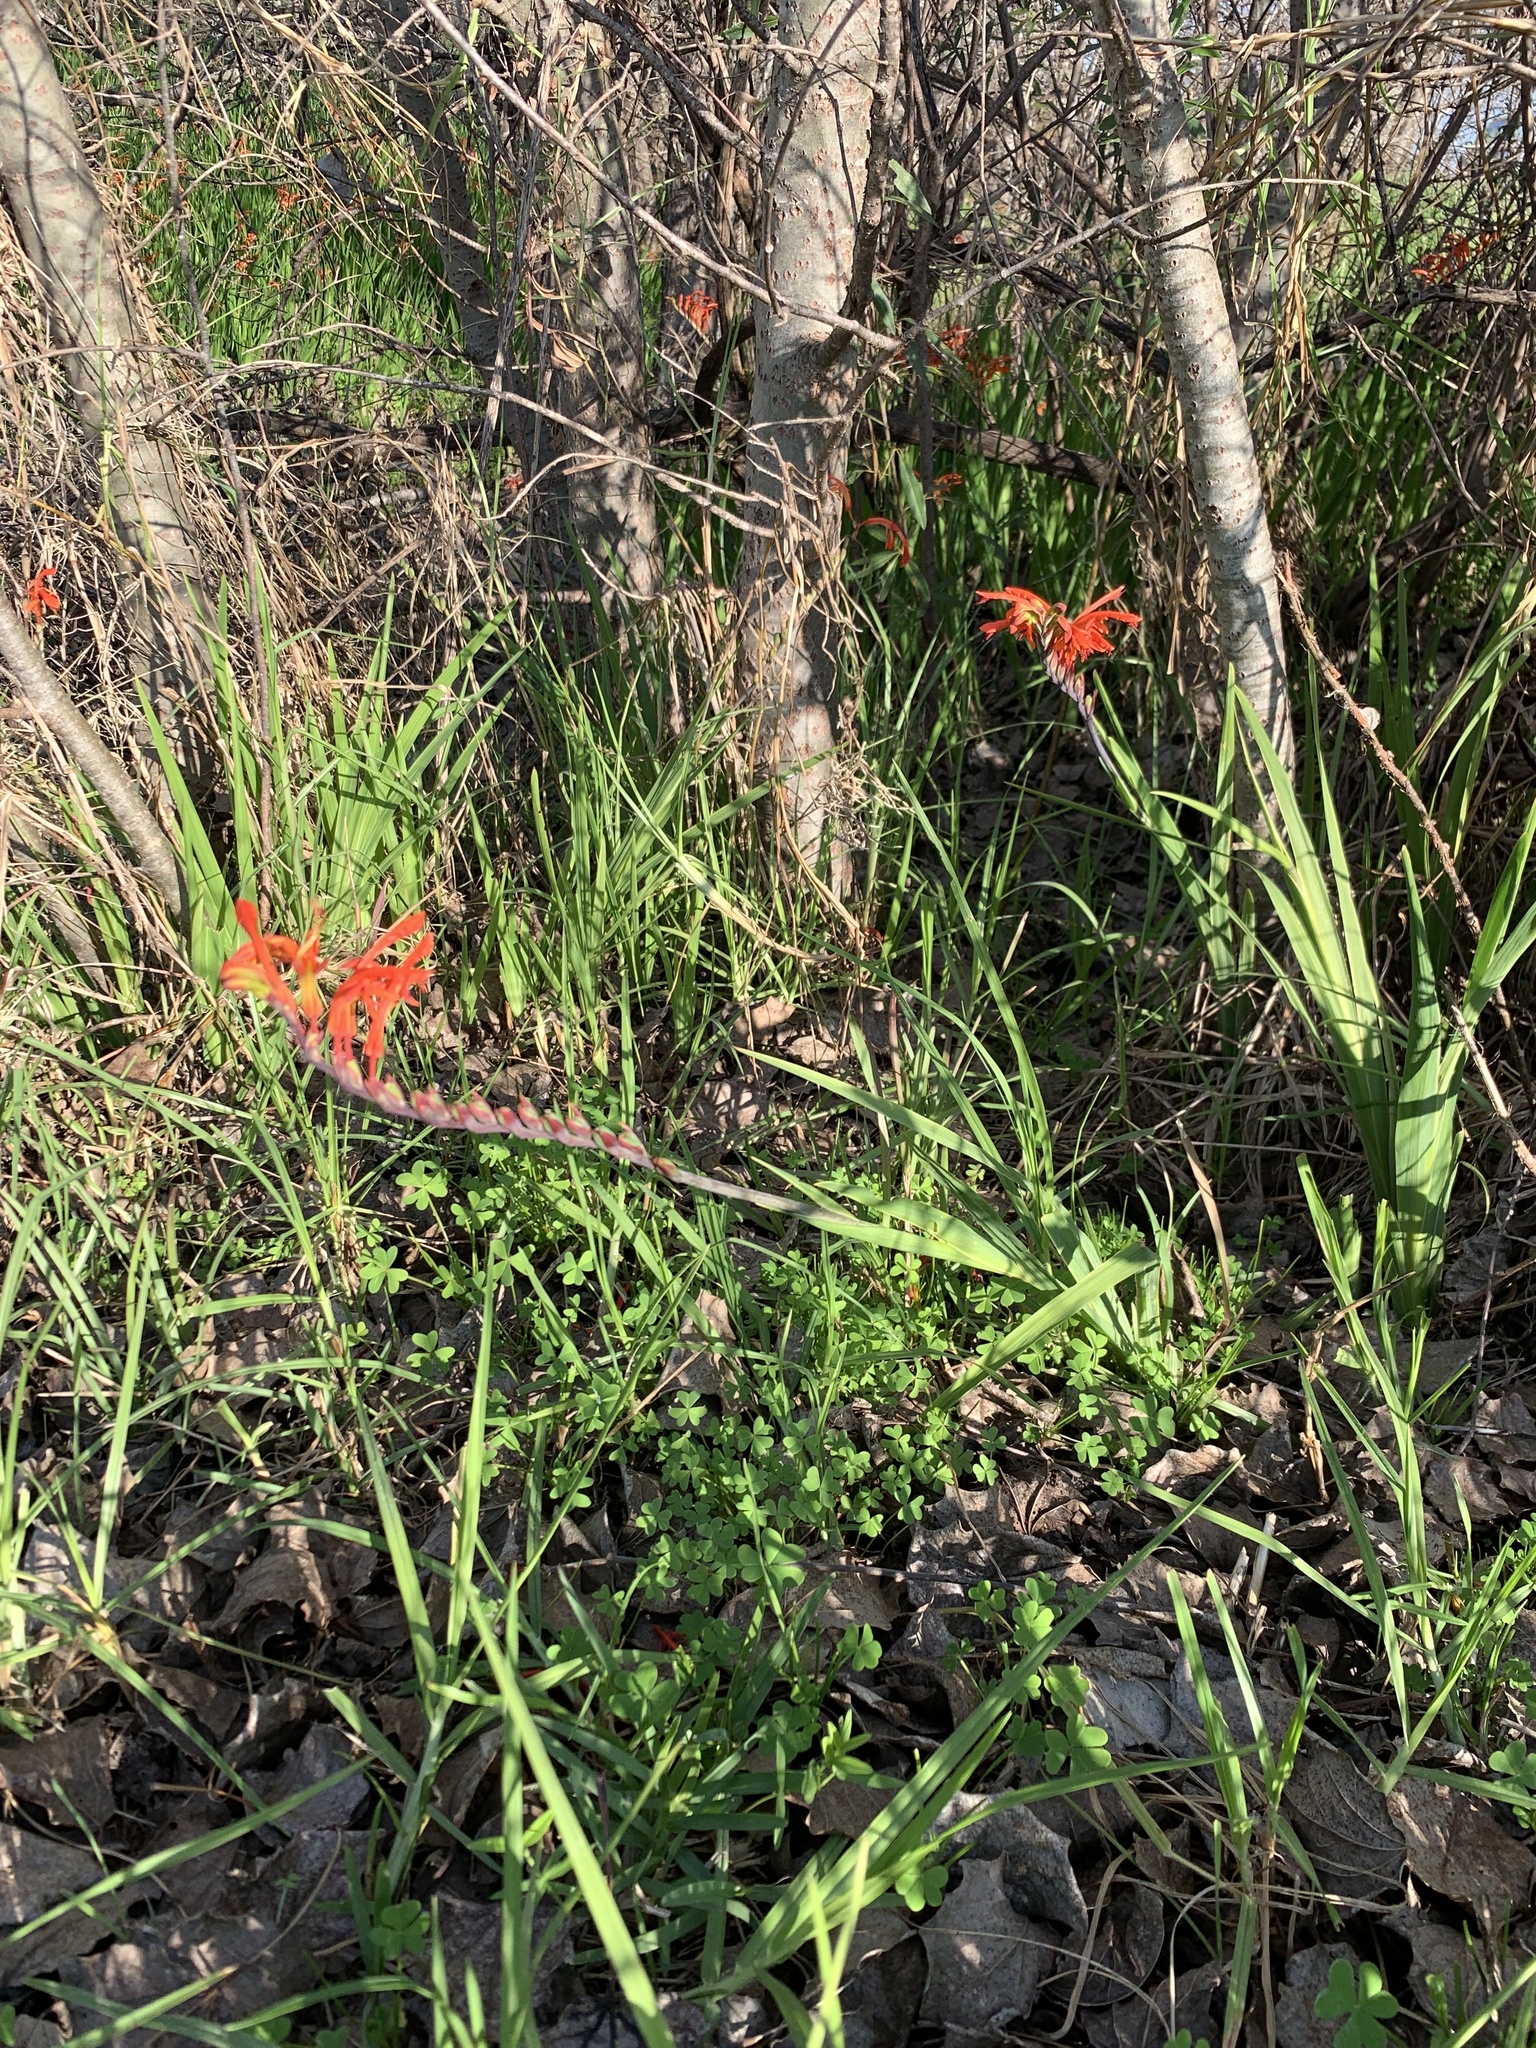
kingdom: Plantae
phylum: Tracheophyta
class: Liliopsida
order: Asparagales
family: Iridaceae
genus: Chasmanthe
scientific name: Chasmanthe aethiopica
